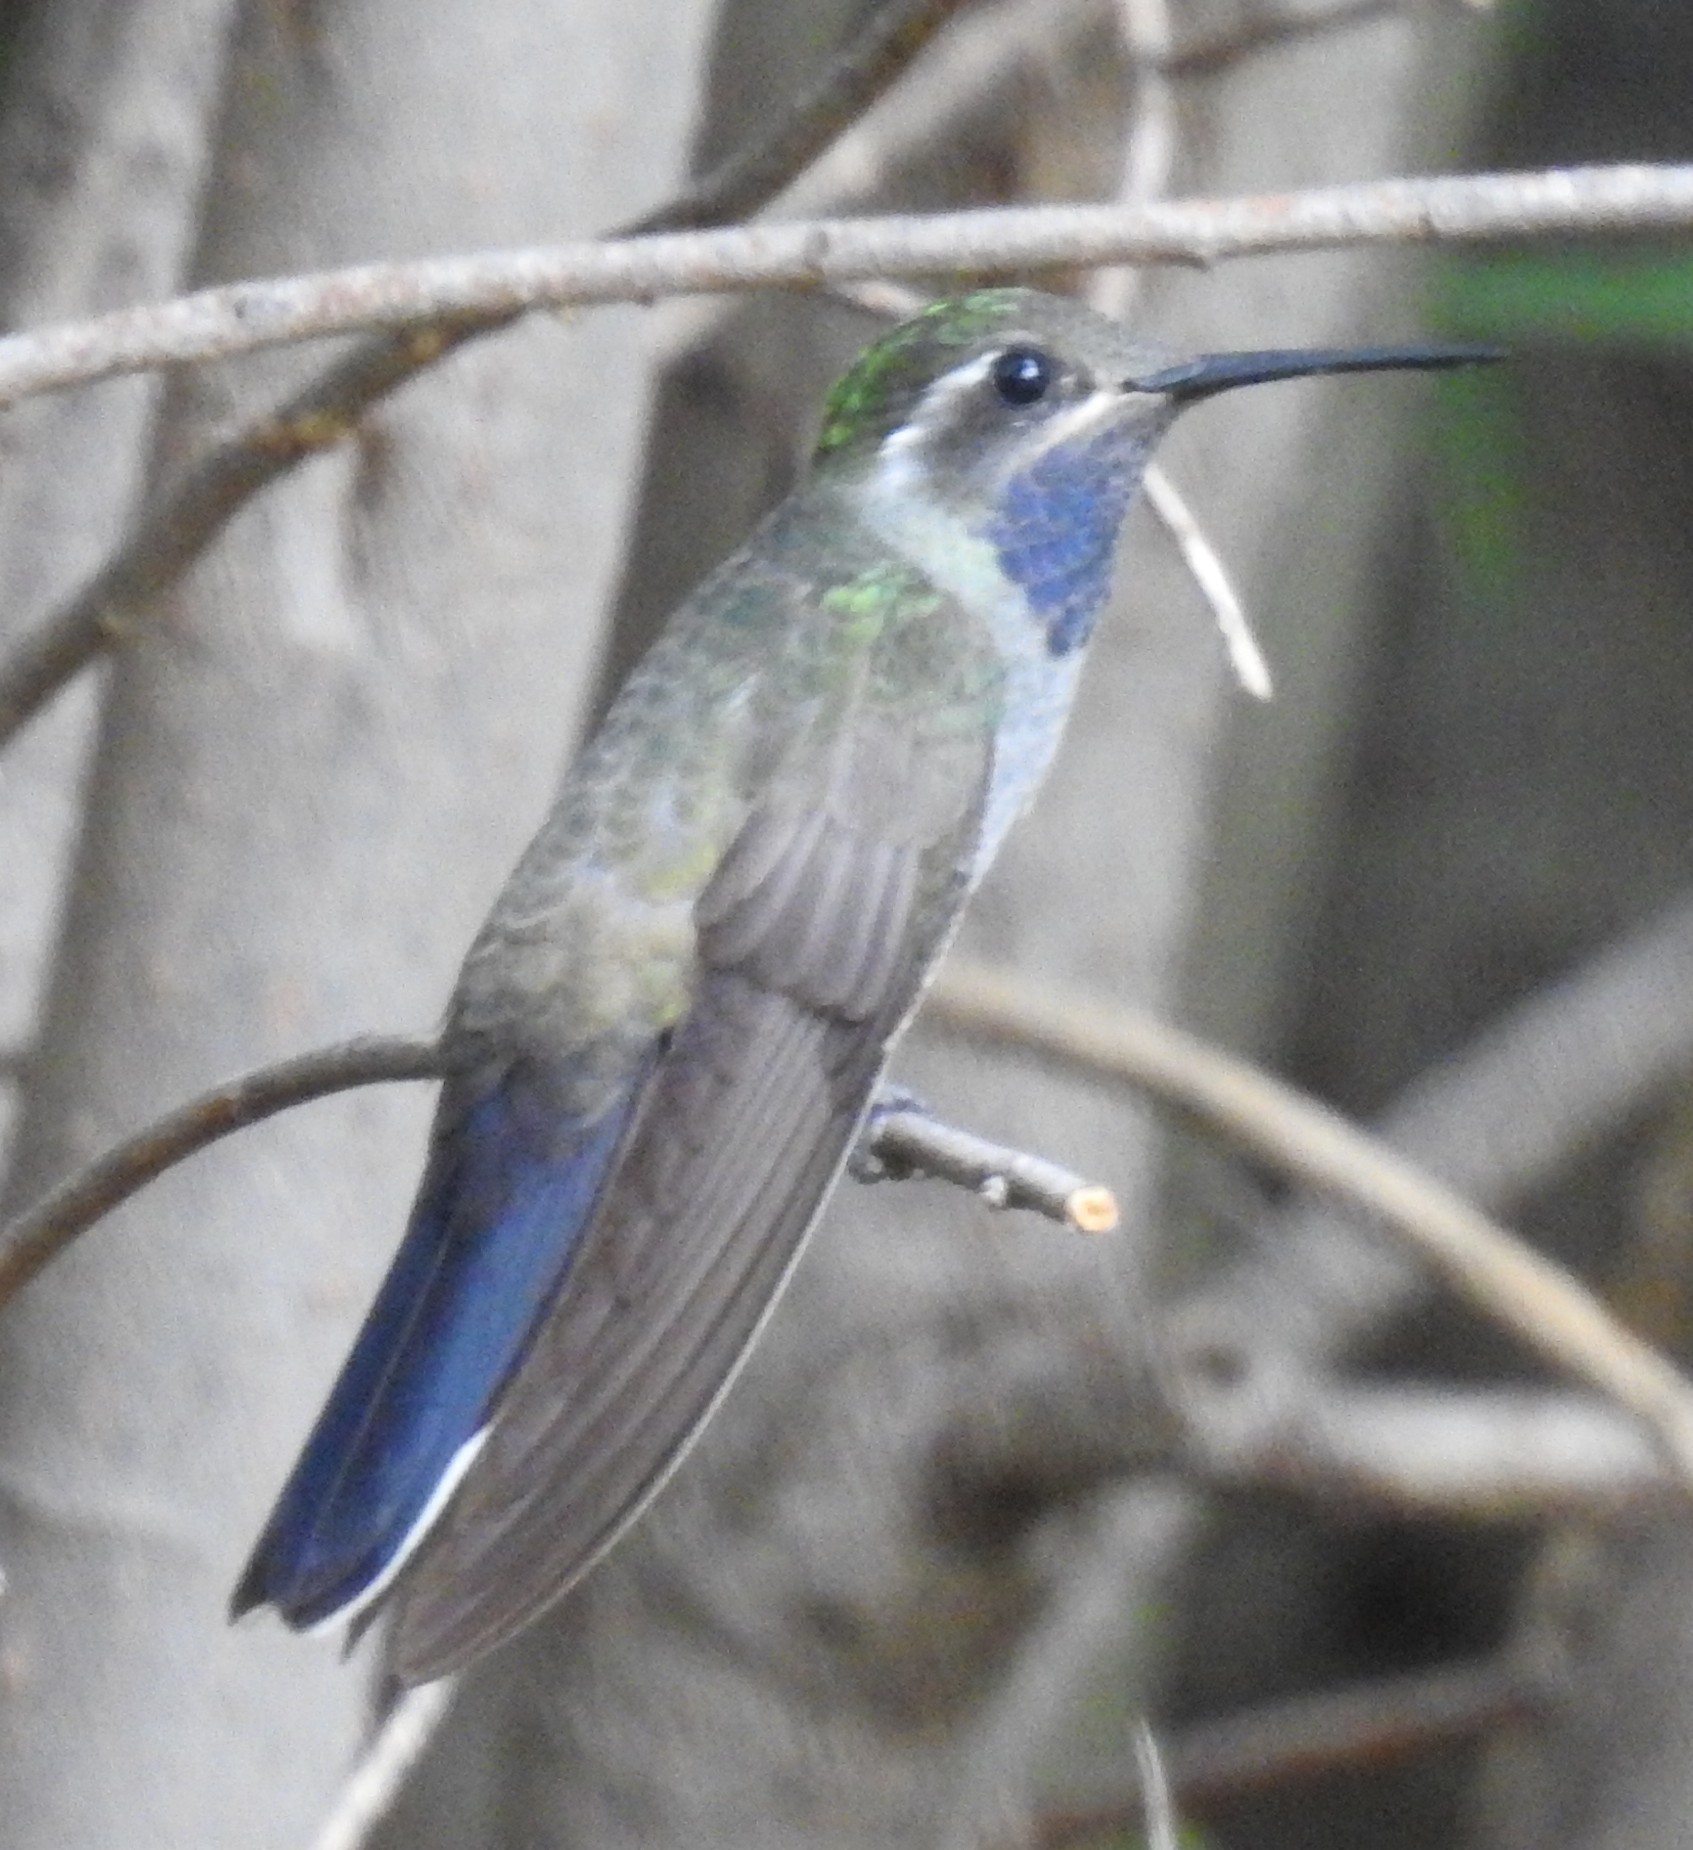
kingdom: Animalia
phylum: Chordata
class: Aves
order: Apodiformes
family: Trochilidae
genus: Lampornis
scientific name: Lampornis clemenciae
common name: Blue-throated mountaingem
